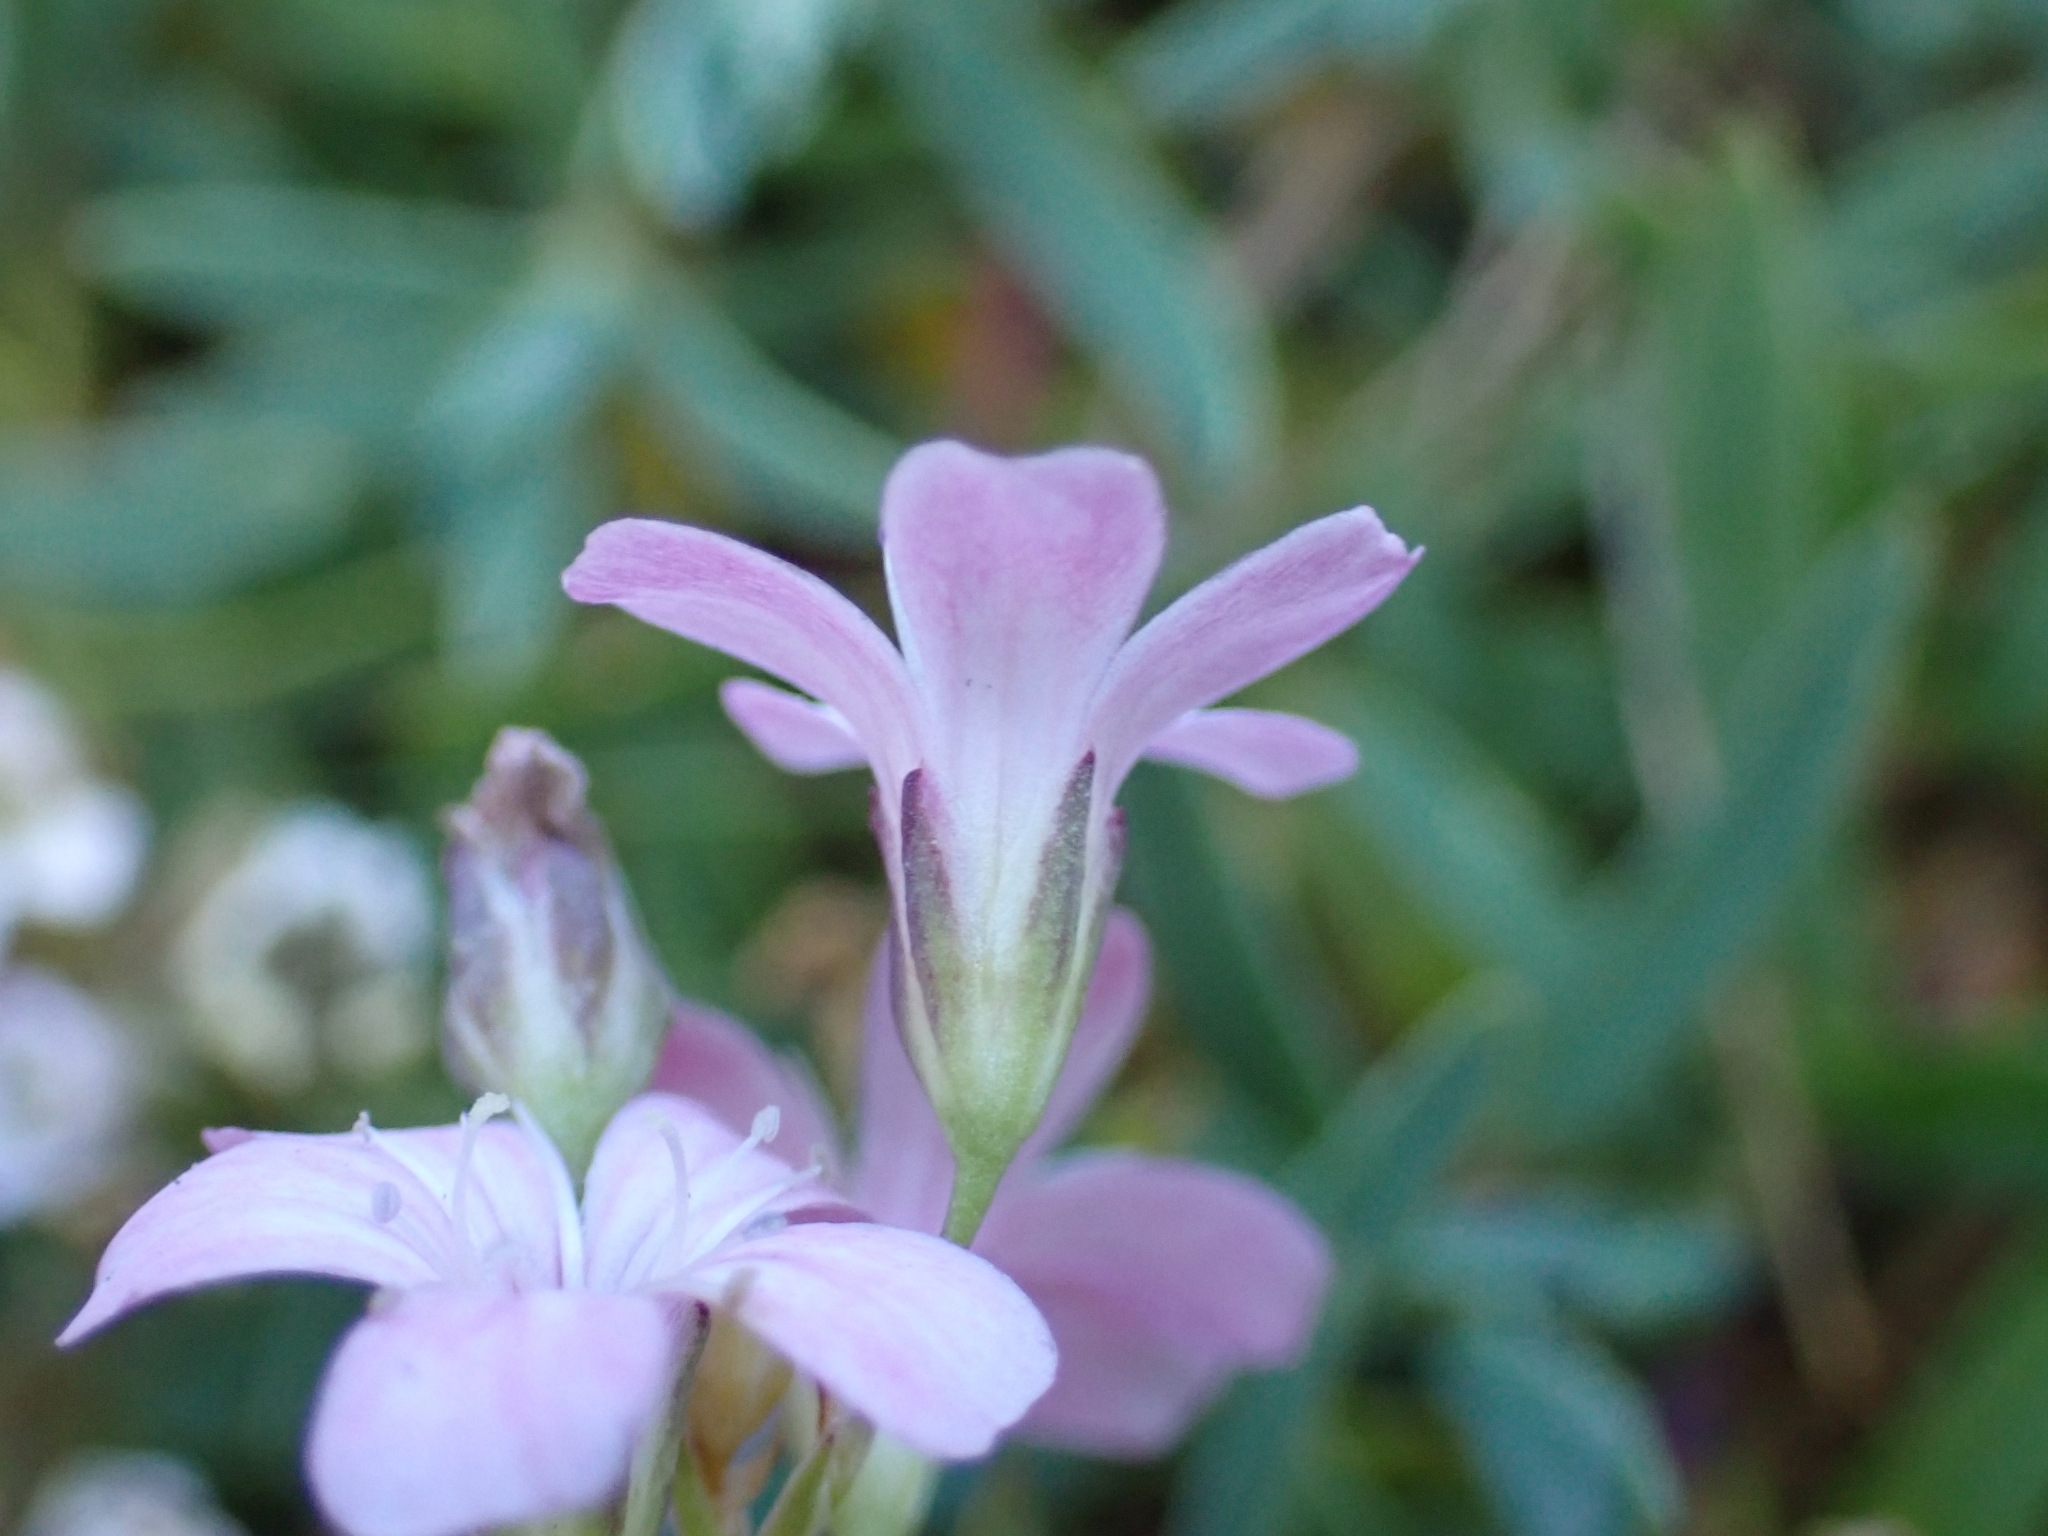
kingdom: Plantae
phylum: Tracheophyta
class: Magnoliopsida
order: Caryophyllales
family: Caryophyllaceae
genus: Gypsophila
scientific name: Gypsophila repens
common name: Creeping baby's-breath
